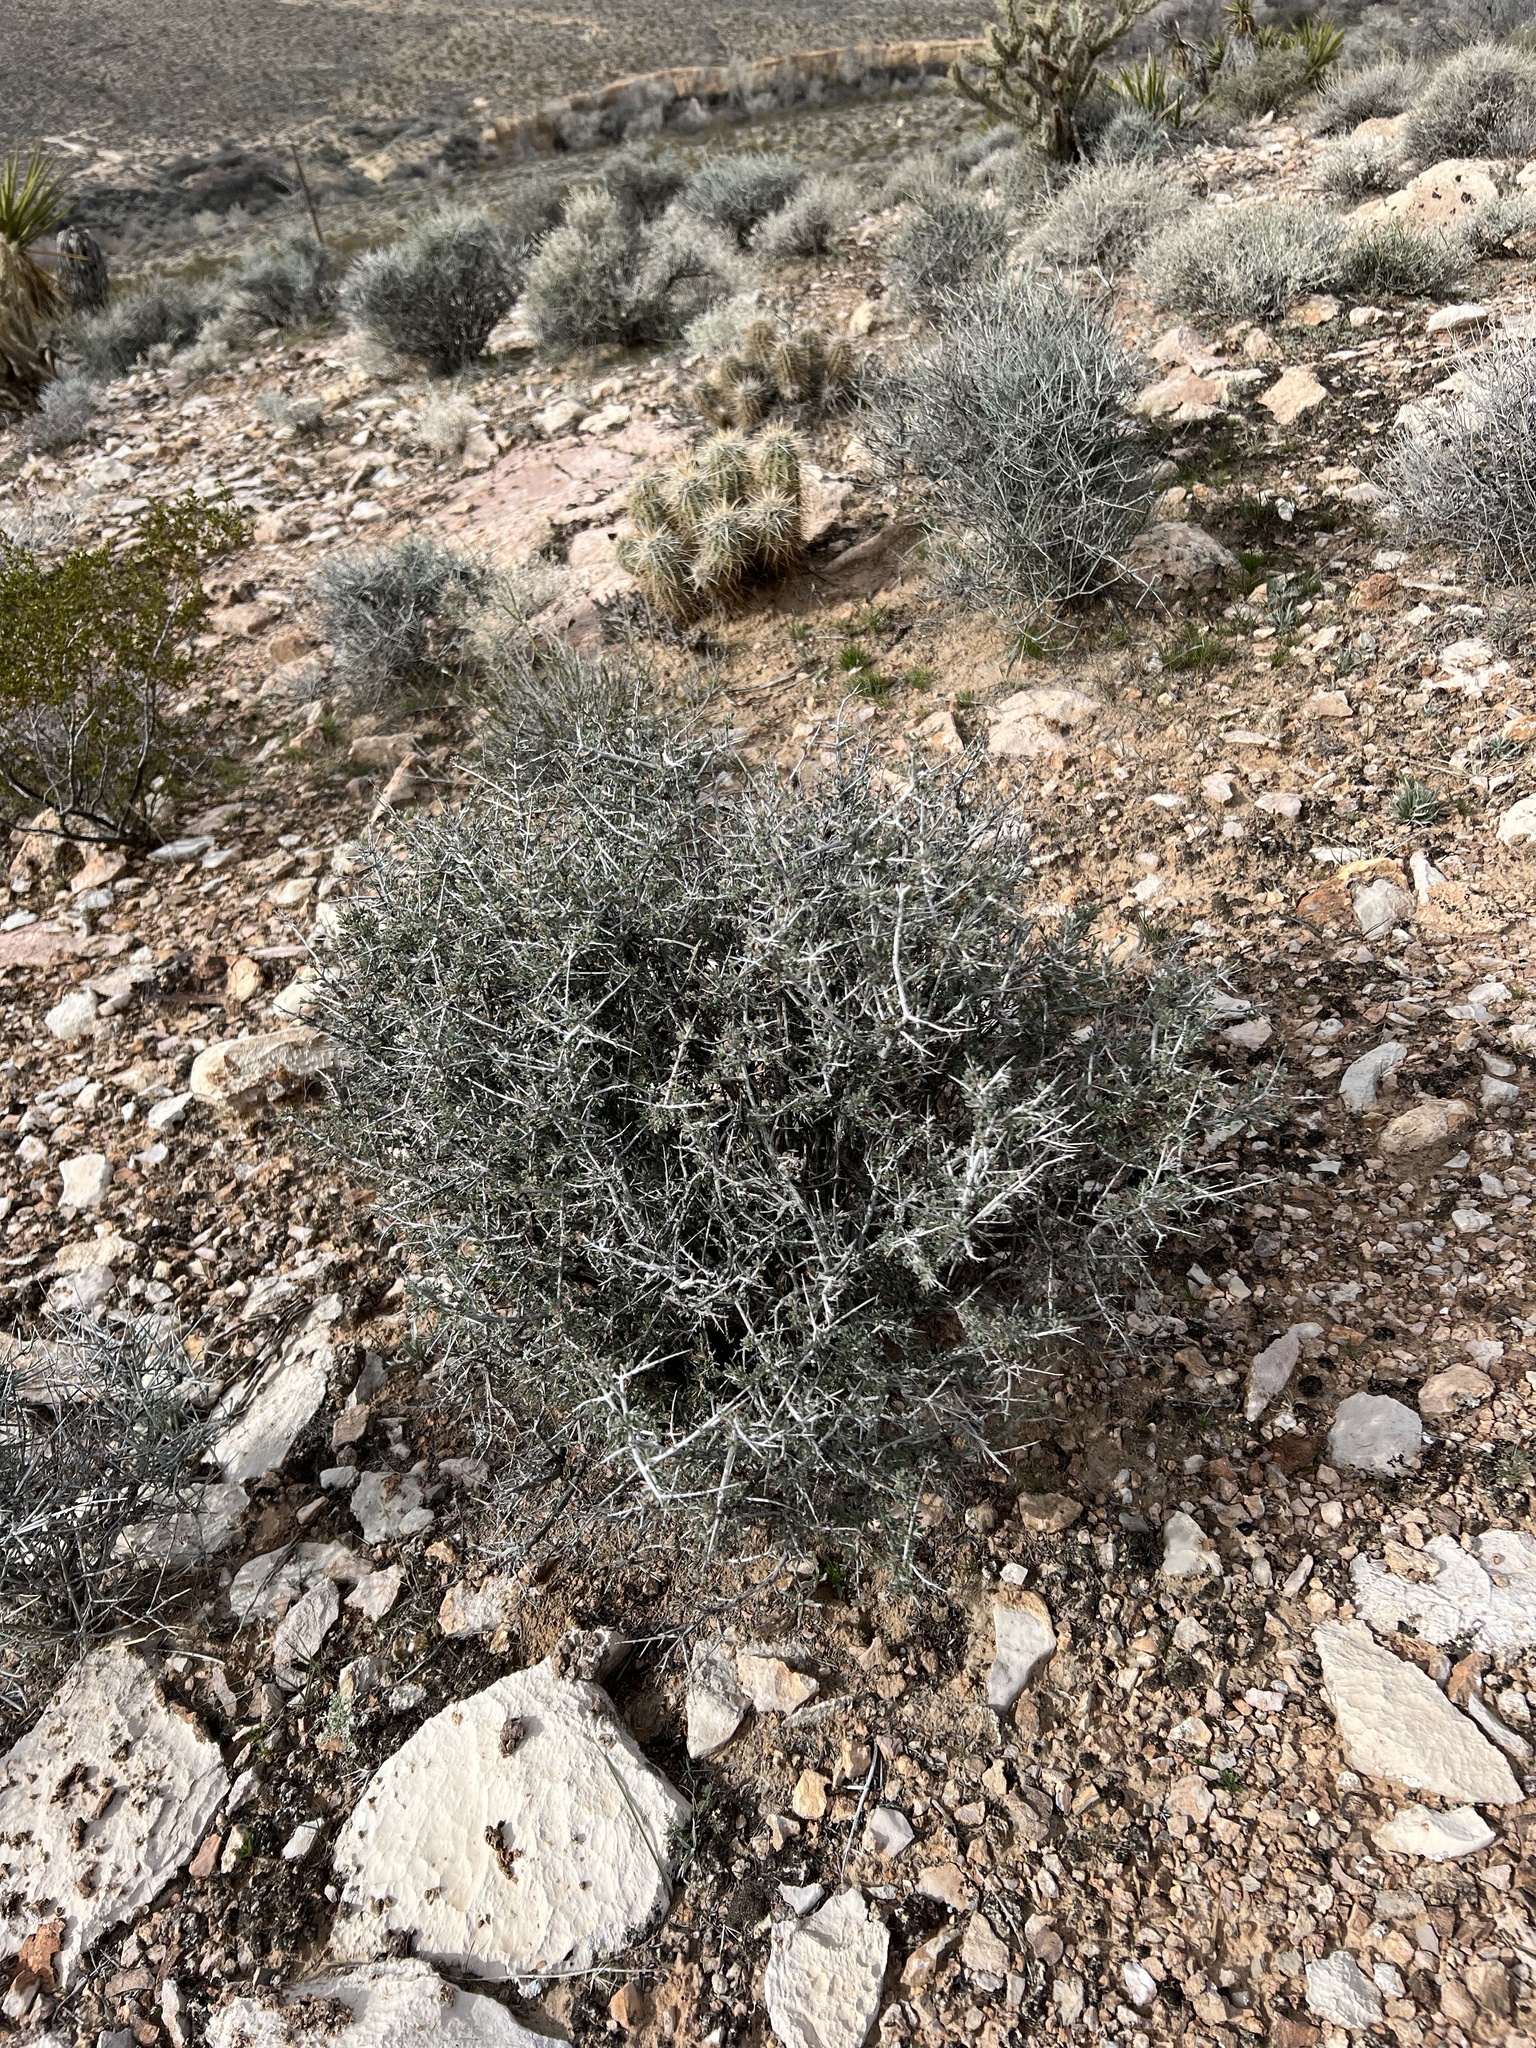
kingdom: Plantae
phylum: Tracheophyta
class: Magnoliopsida
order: Rosales
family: Rosaceae
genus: Coleogyne
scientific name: Coleogyne ramosissima
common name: Blackbrush
